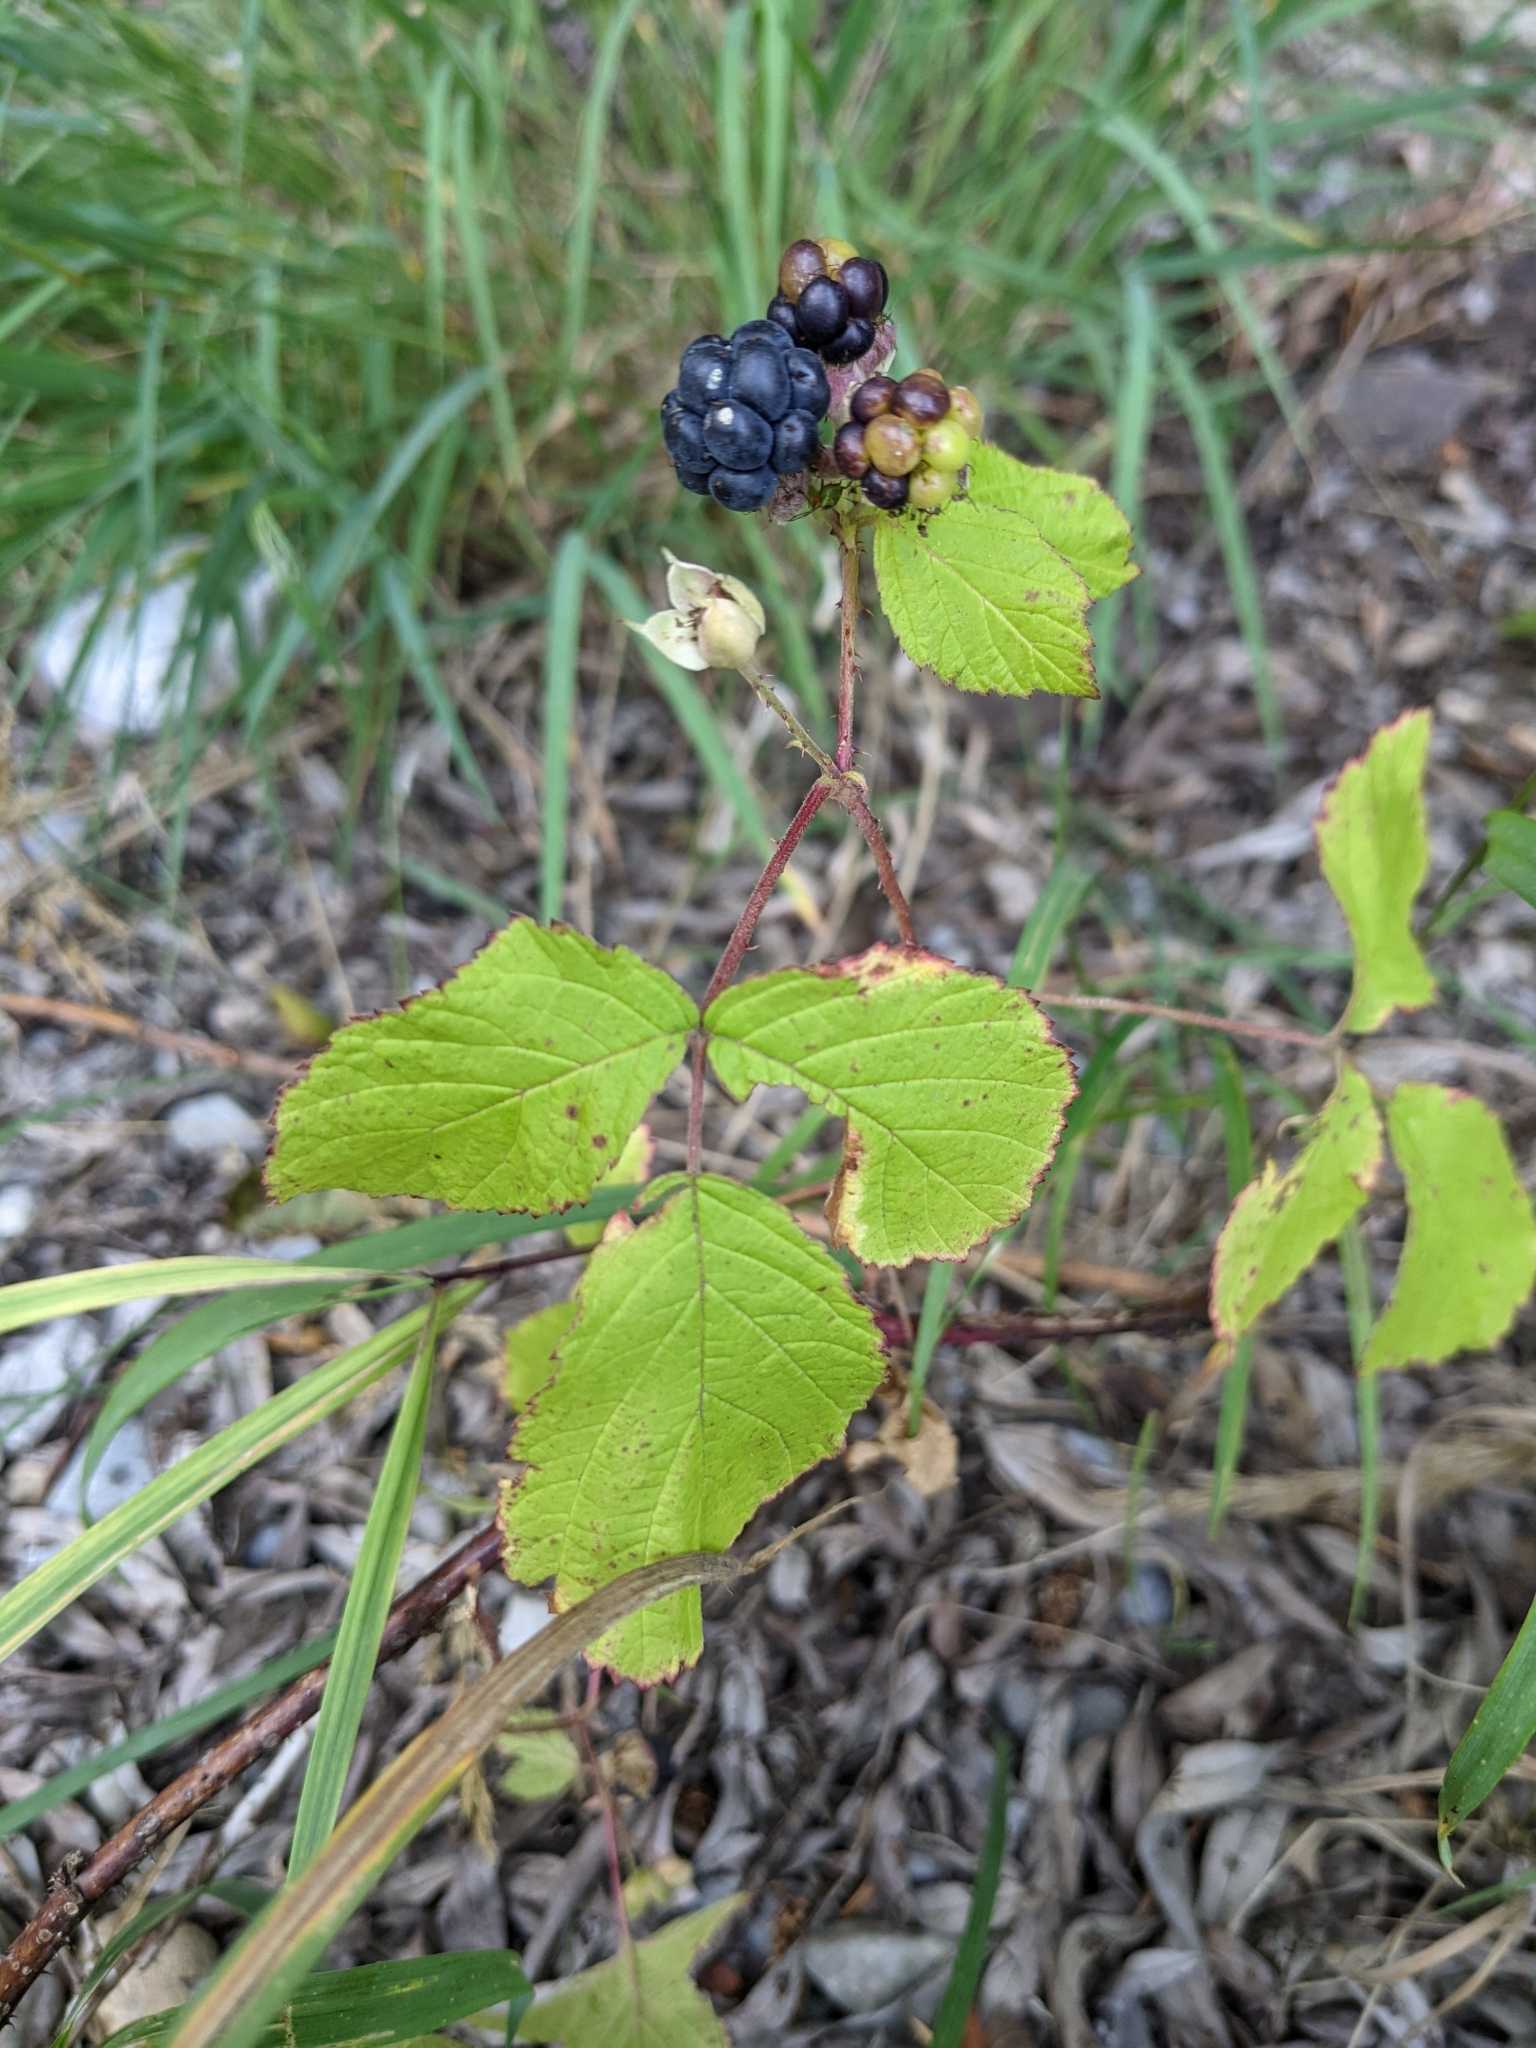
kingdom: Plantae
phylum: Tracheophyta
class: Magnoliopsida
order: Rosales
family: Rosaceae
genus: Rubus
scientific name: Rubus caesius
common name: Dewberry
